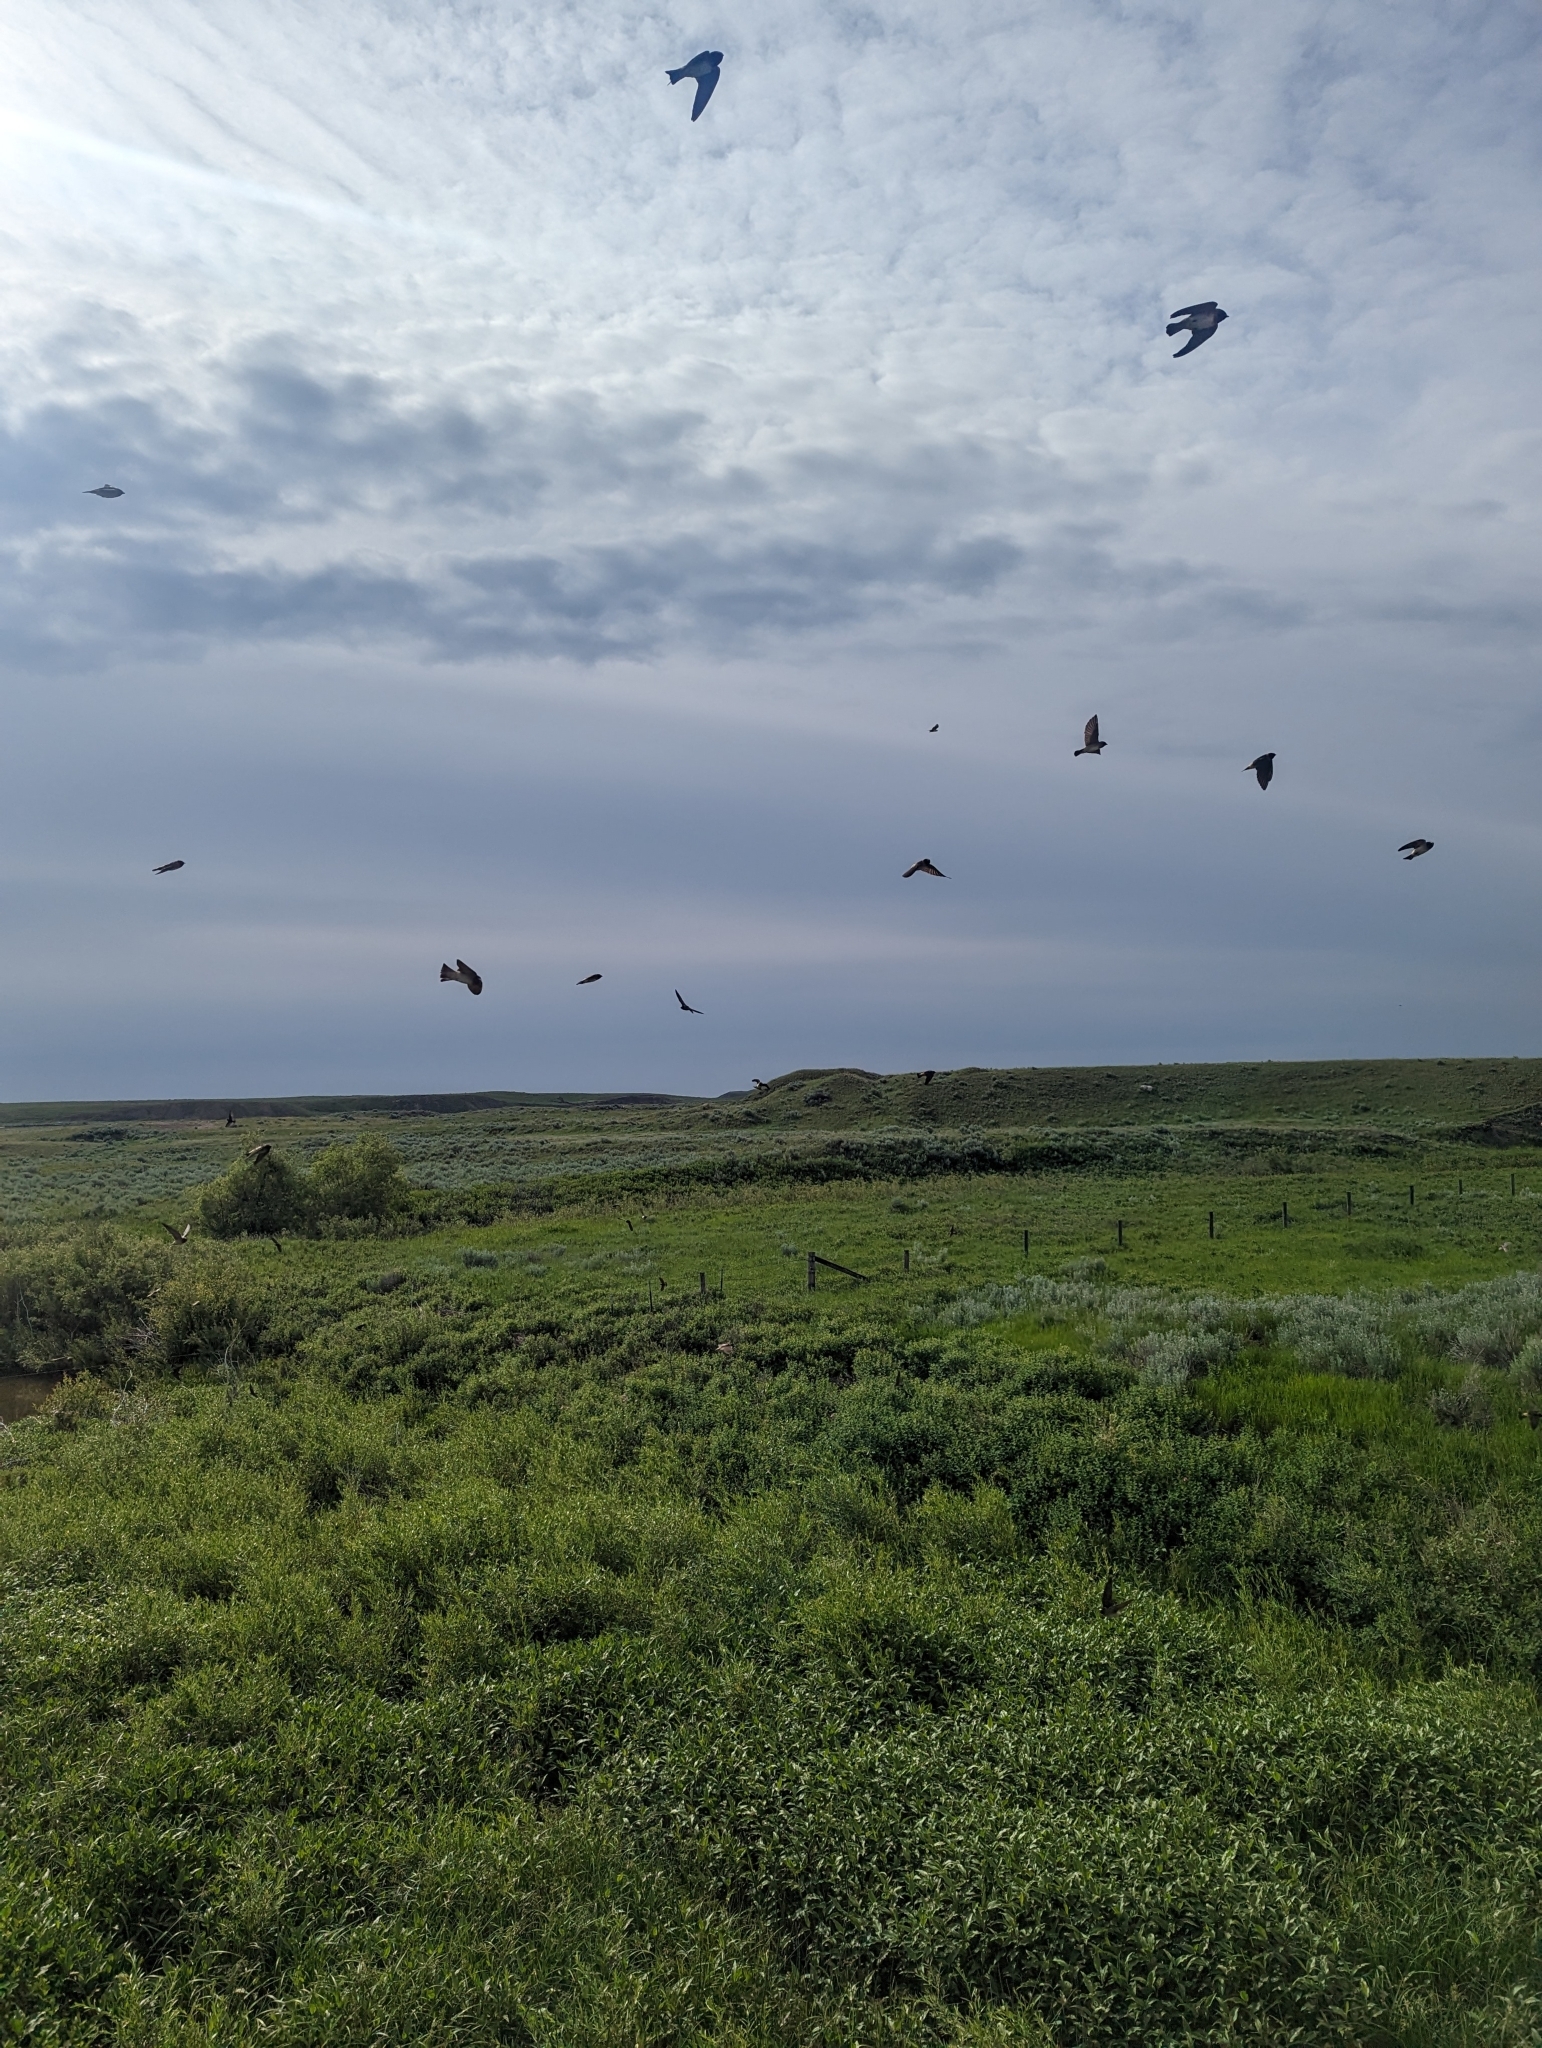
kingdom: Animalia
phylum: Chordata
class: Aves
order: Passeriformes
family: Hirundinidae
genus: Petrochelidon
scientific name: Petrochelidon pyrrhonota
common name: American cliff swallow
